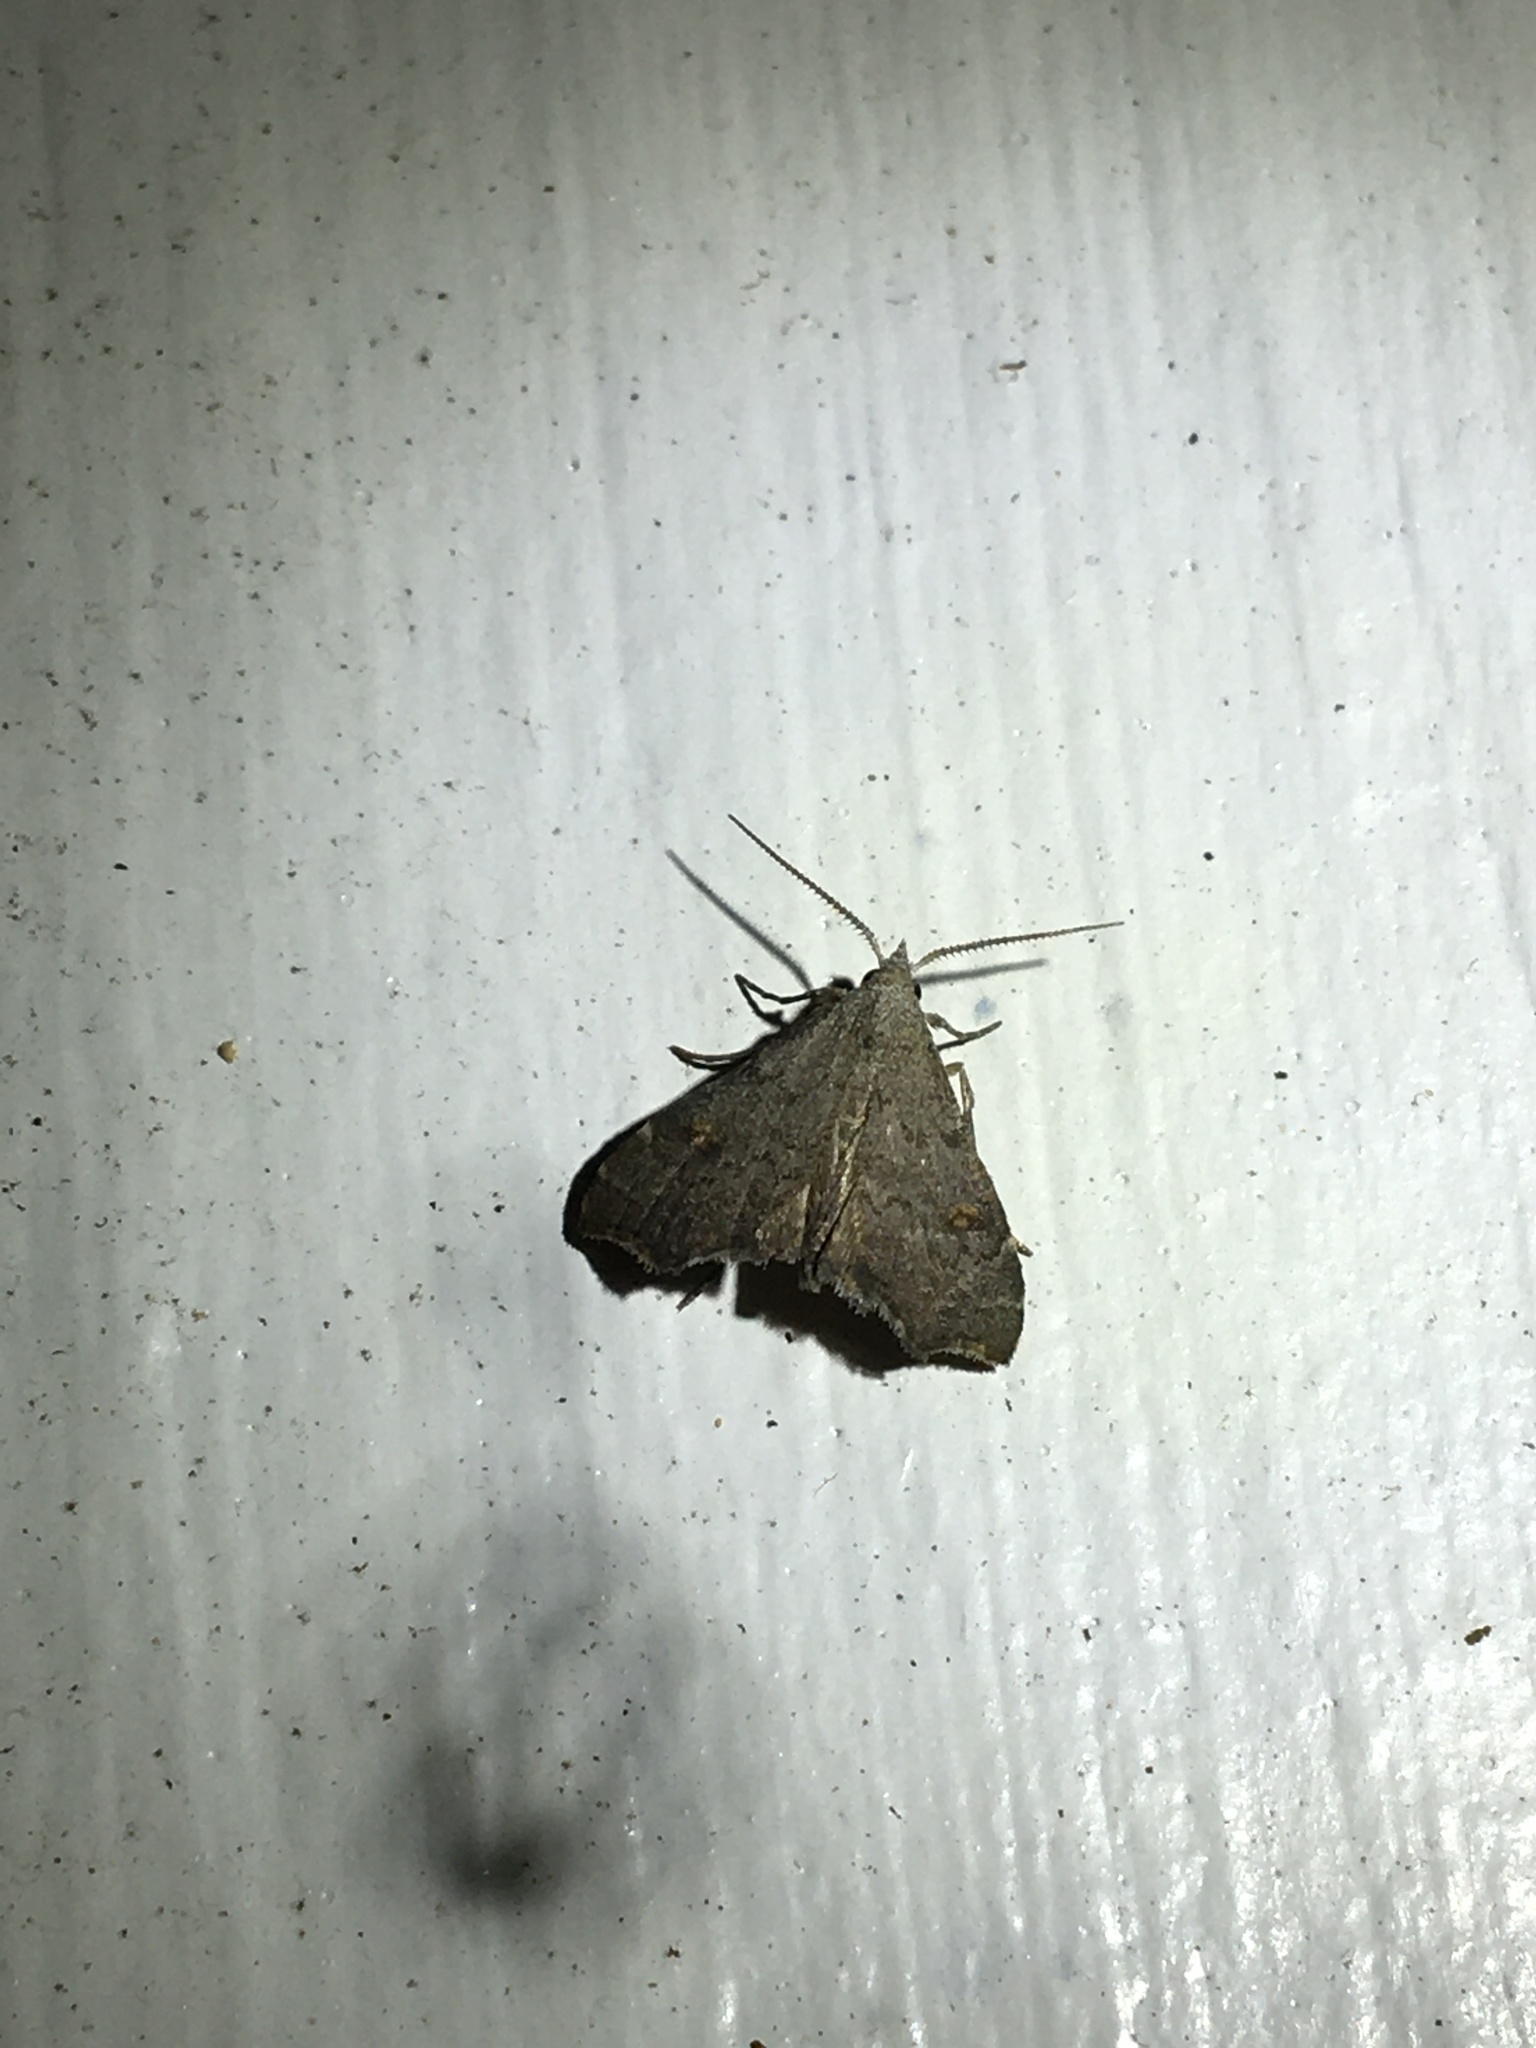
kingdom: Animalia
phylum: Arthropoda
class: Insecta
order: Lepidoptera
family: Erebidae
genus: Redectis
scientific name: Redectis pygmaea
